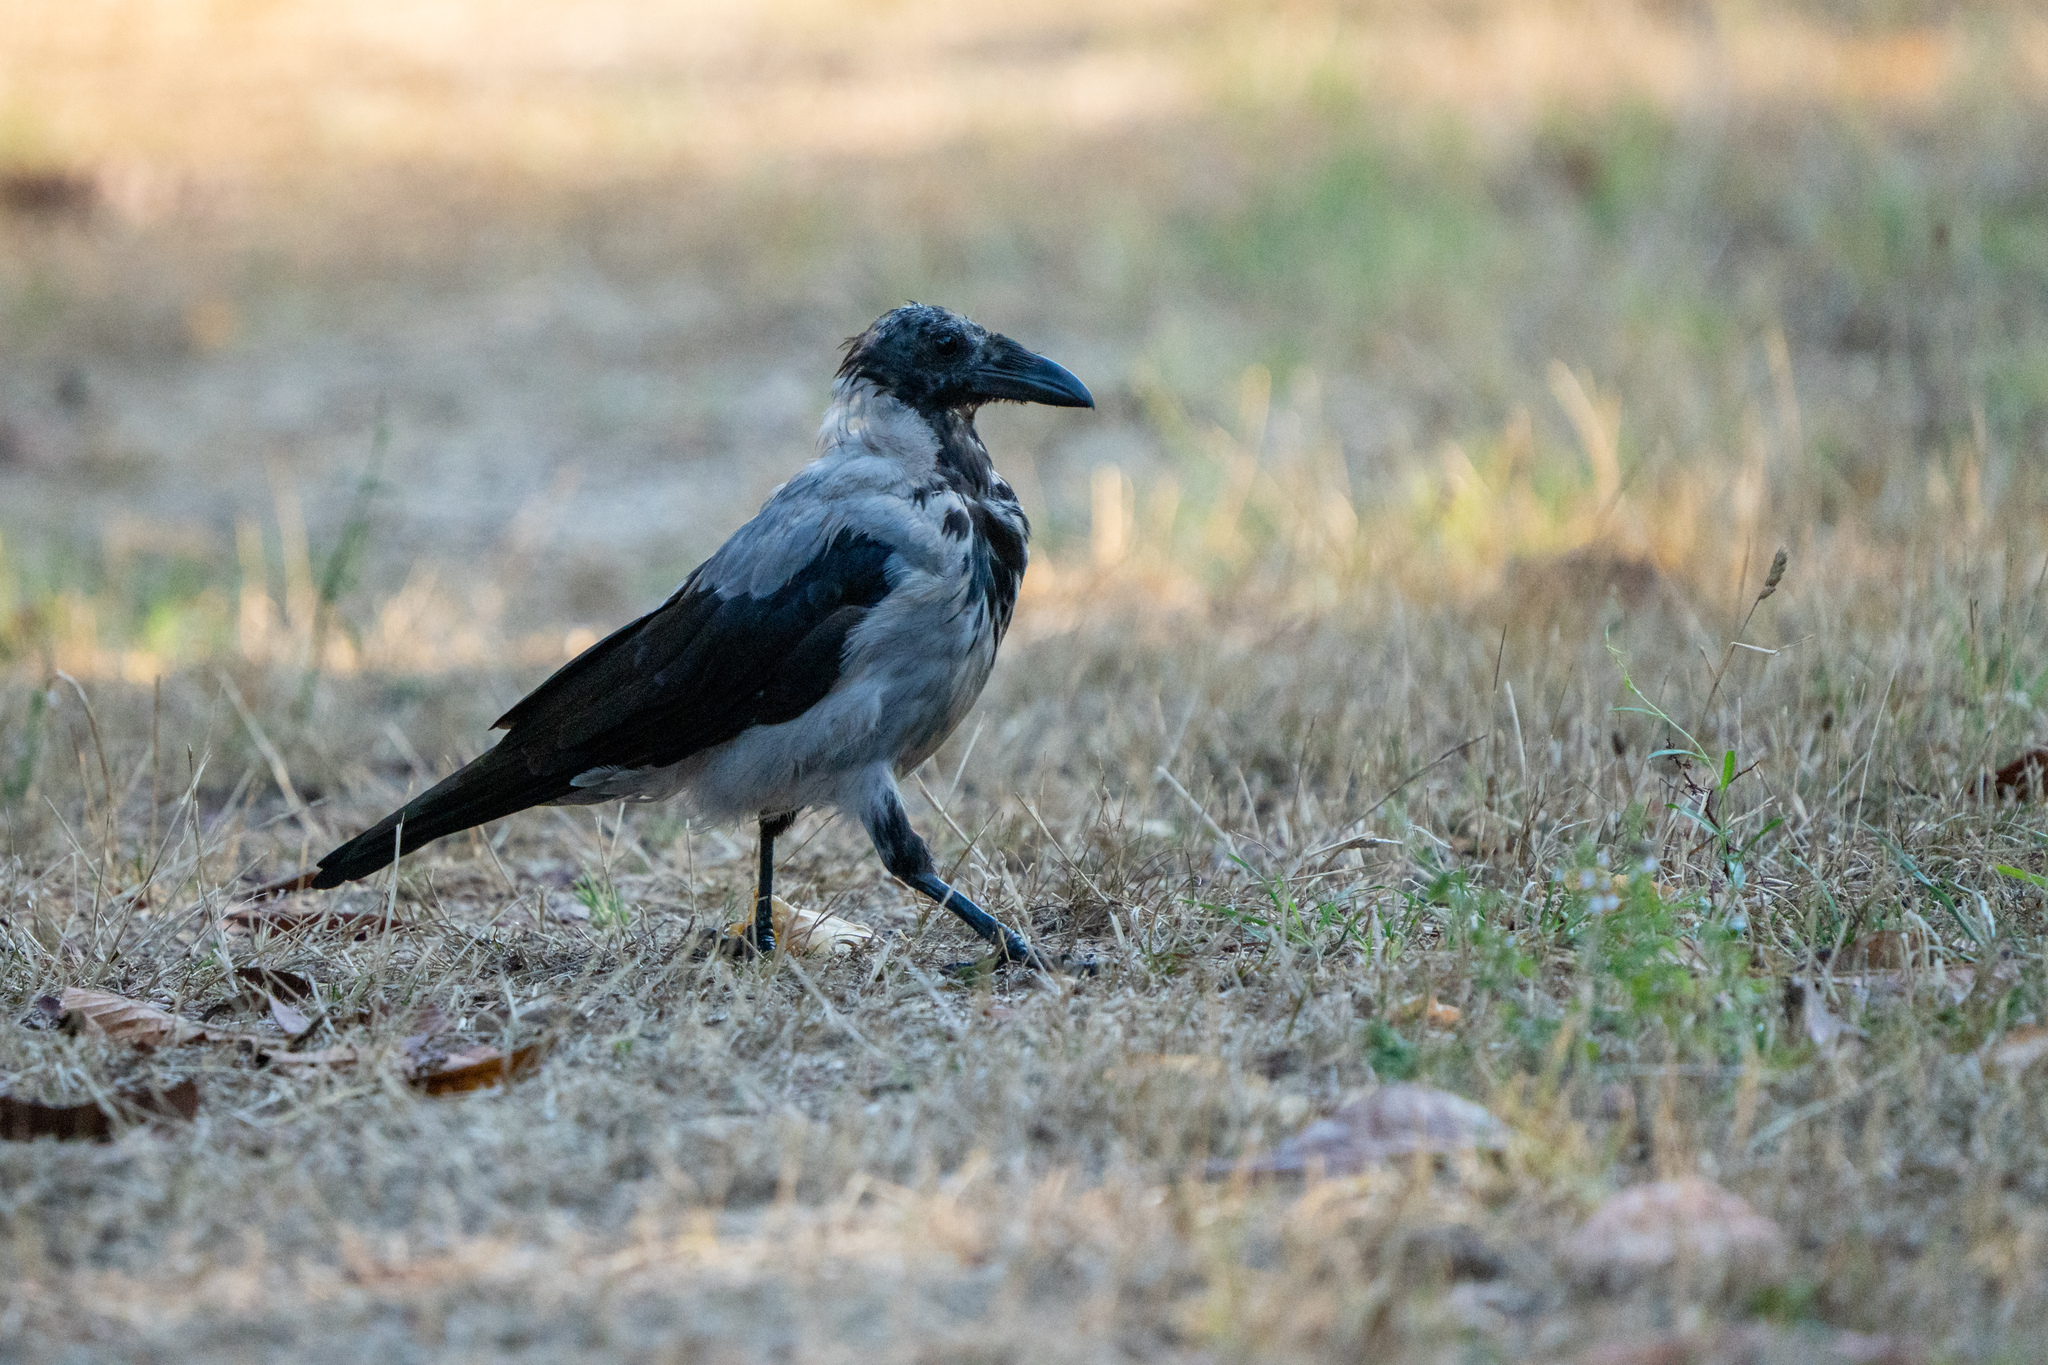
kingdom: Animalia
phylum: Chordata
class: Aves
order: Passeriformes
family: Corvidae
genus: Corvus
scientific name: Corvus cornix
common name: Hooded crow
